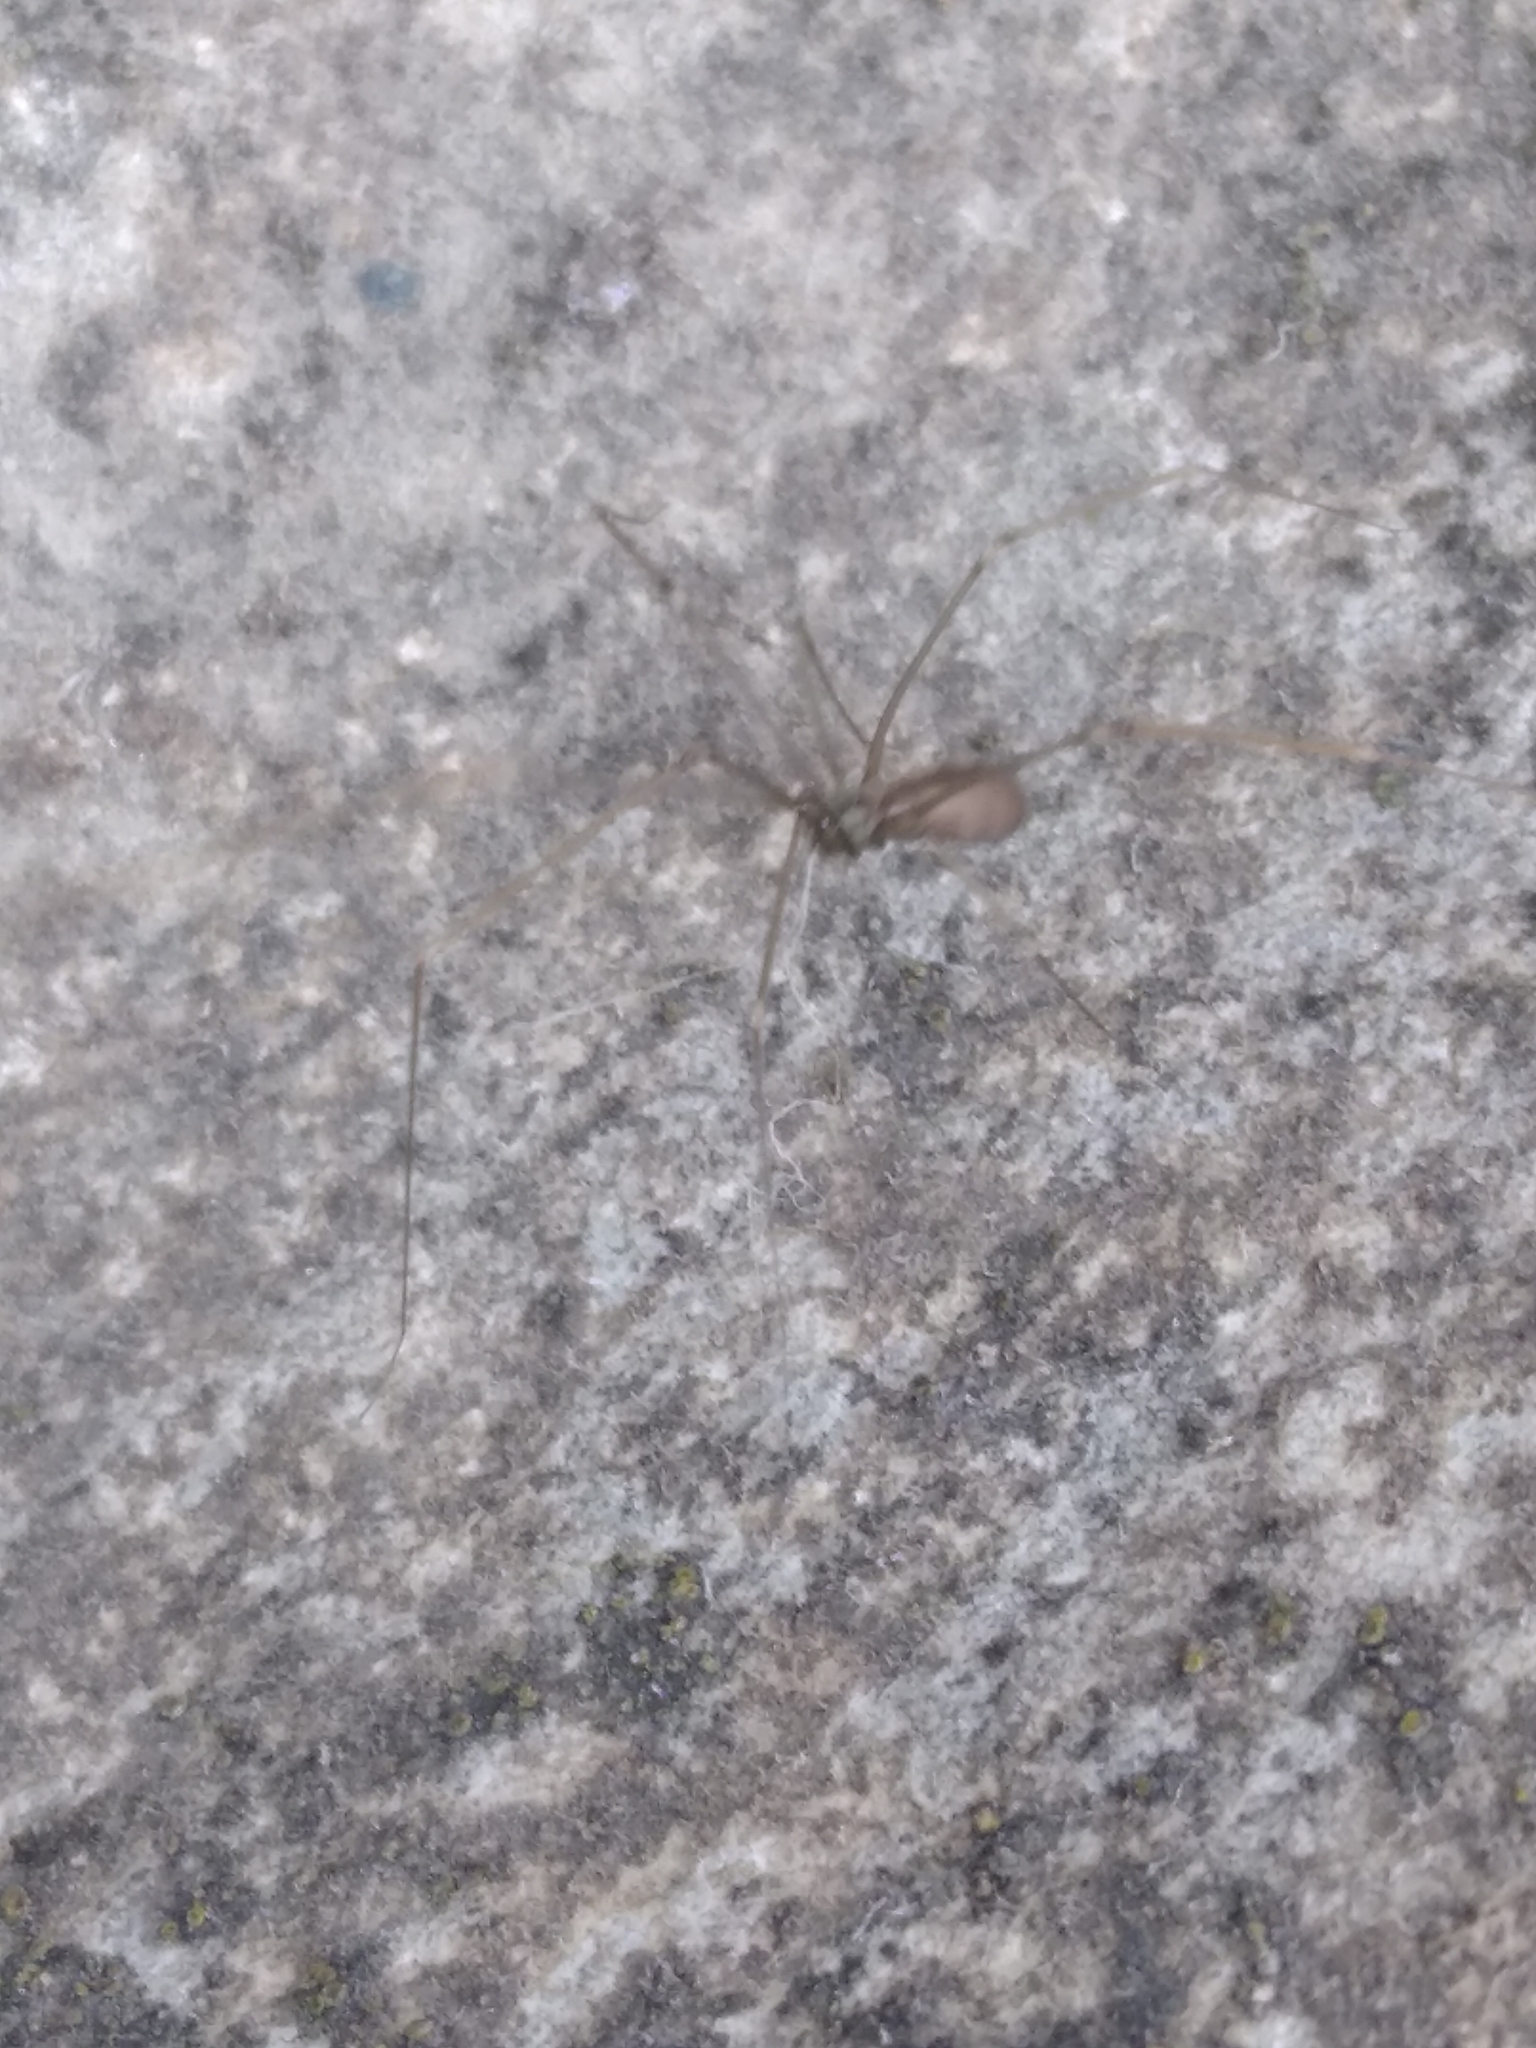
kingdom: Animalia
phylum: Arthropoda
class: Arachnida
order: Araneae
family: Pholcidae
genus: Pholcus
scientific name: Pholcus opilionoides
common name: Daddylongleg spider
